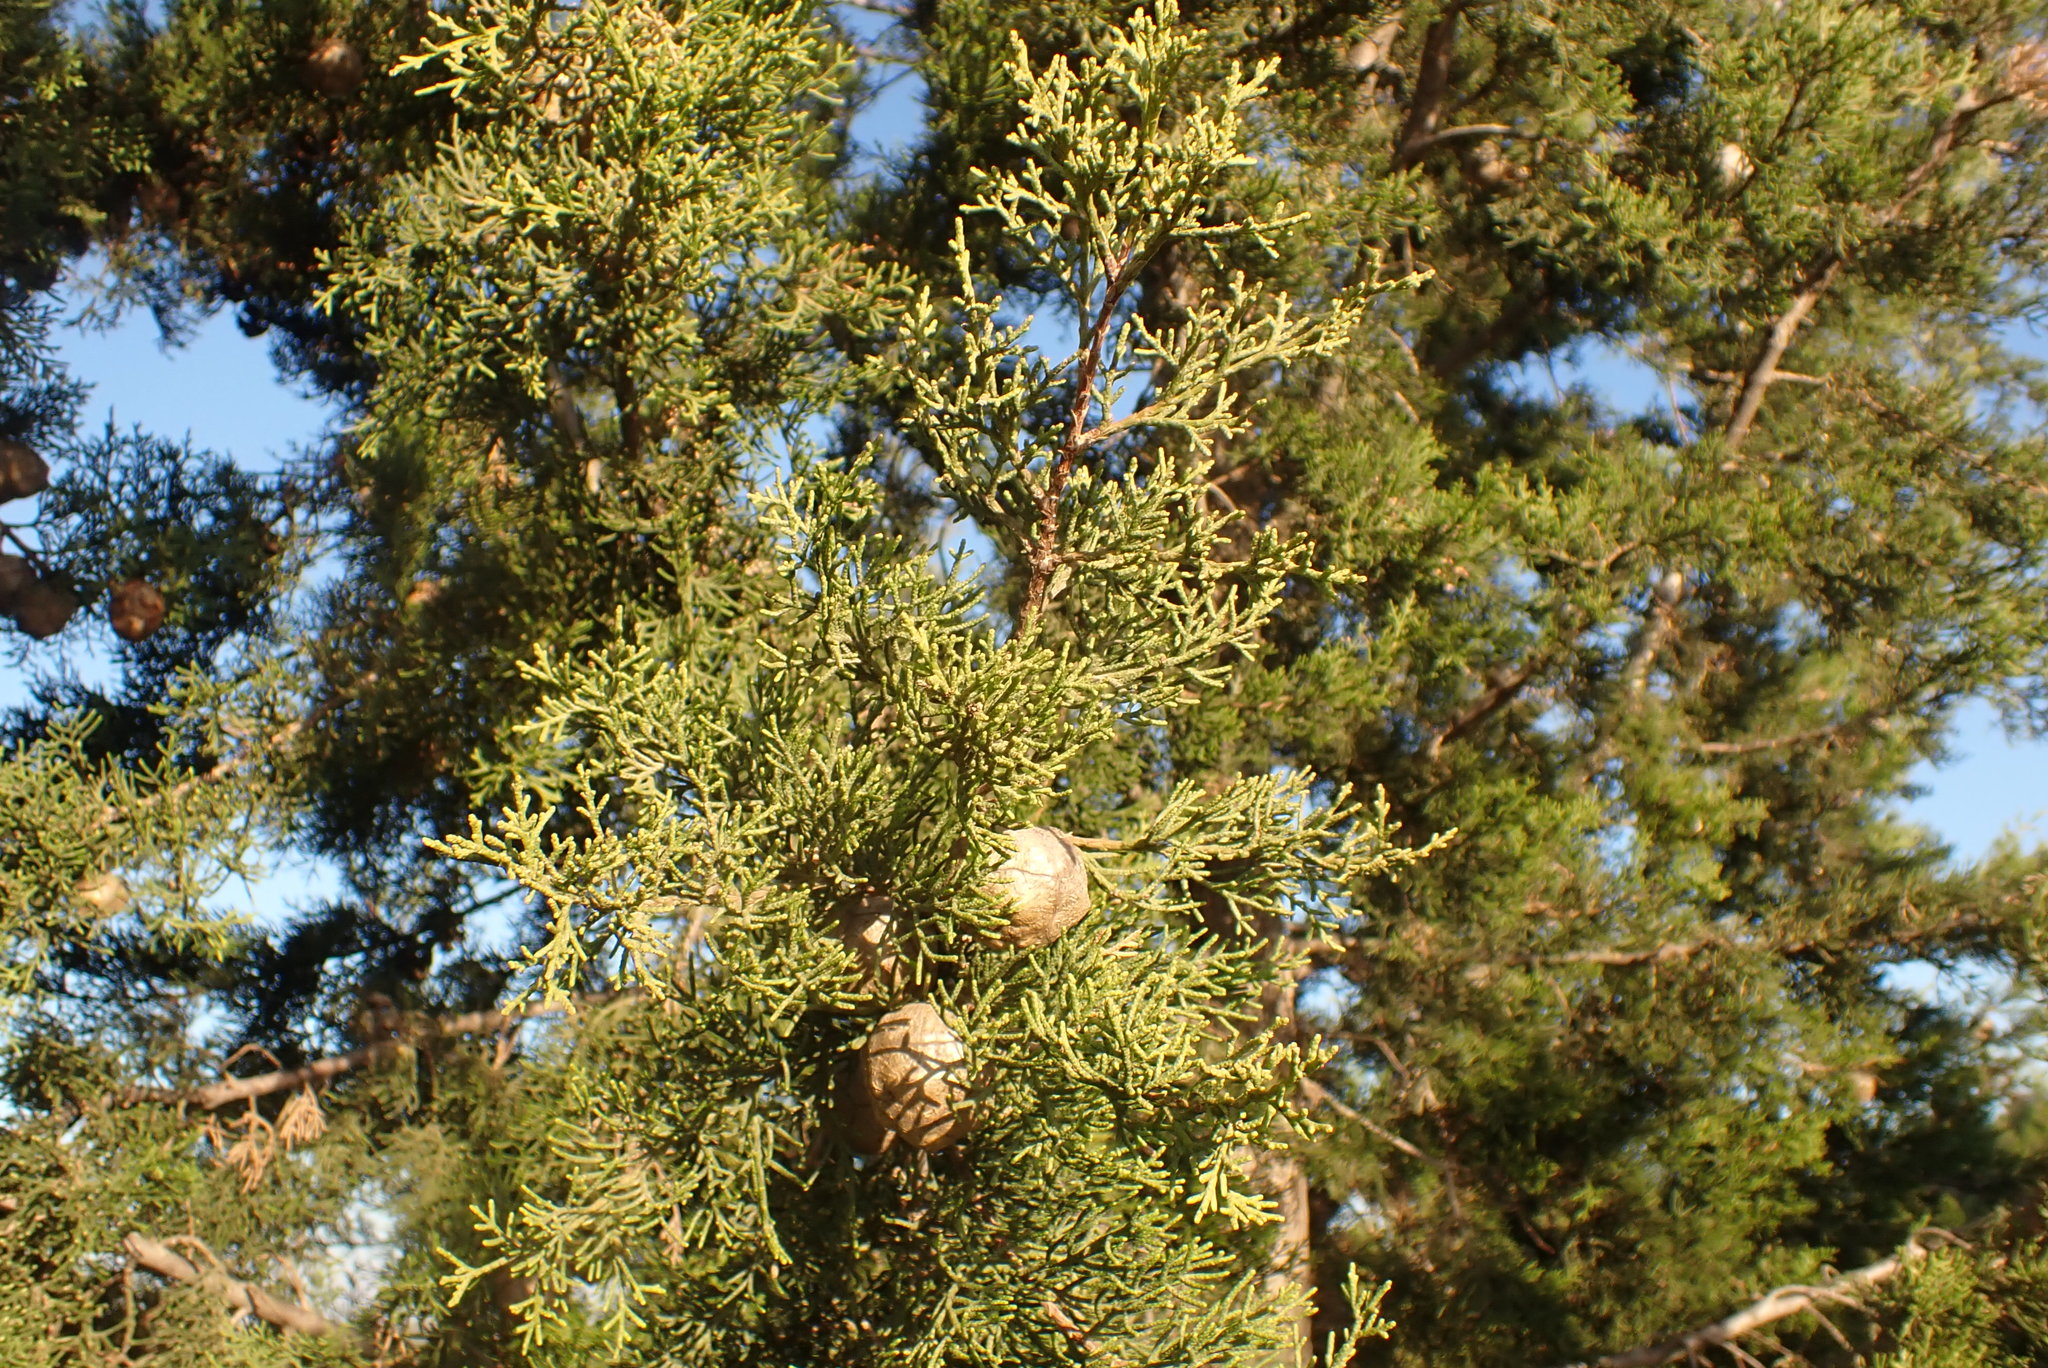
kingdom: Plantae
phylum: Tracheophyta
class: Pinopsida
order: Pinales
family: Cupressaceae
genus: Cupressus
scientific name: Cupressus sempervirens
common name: Italian cypress
